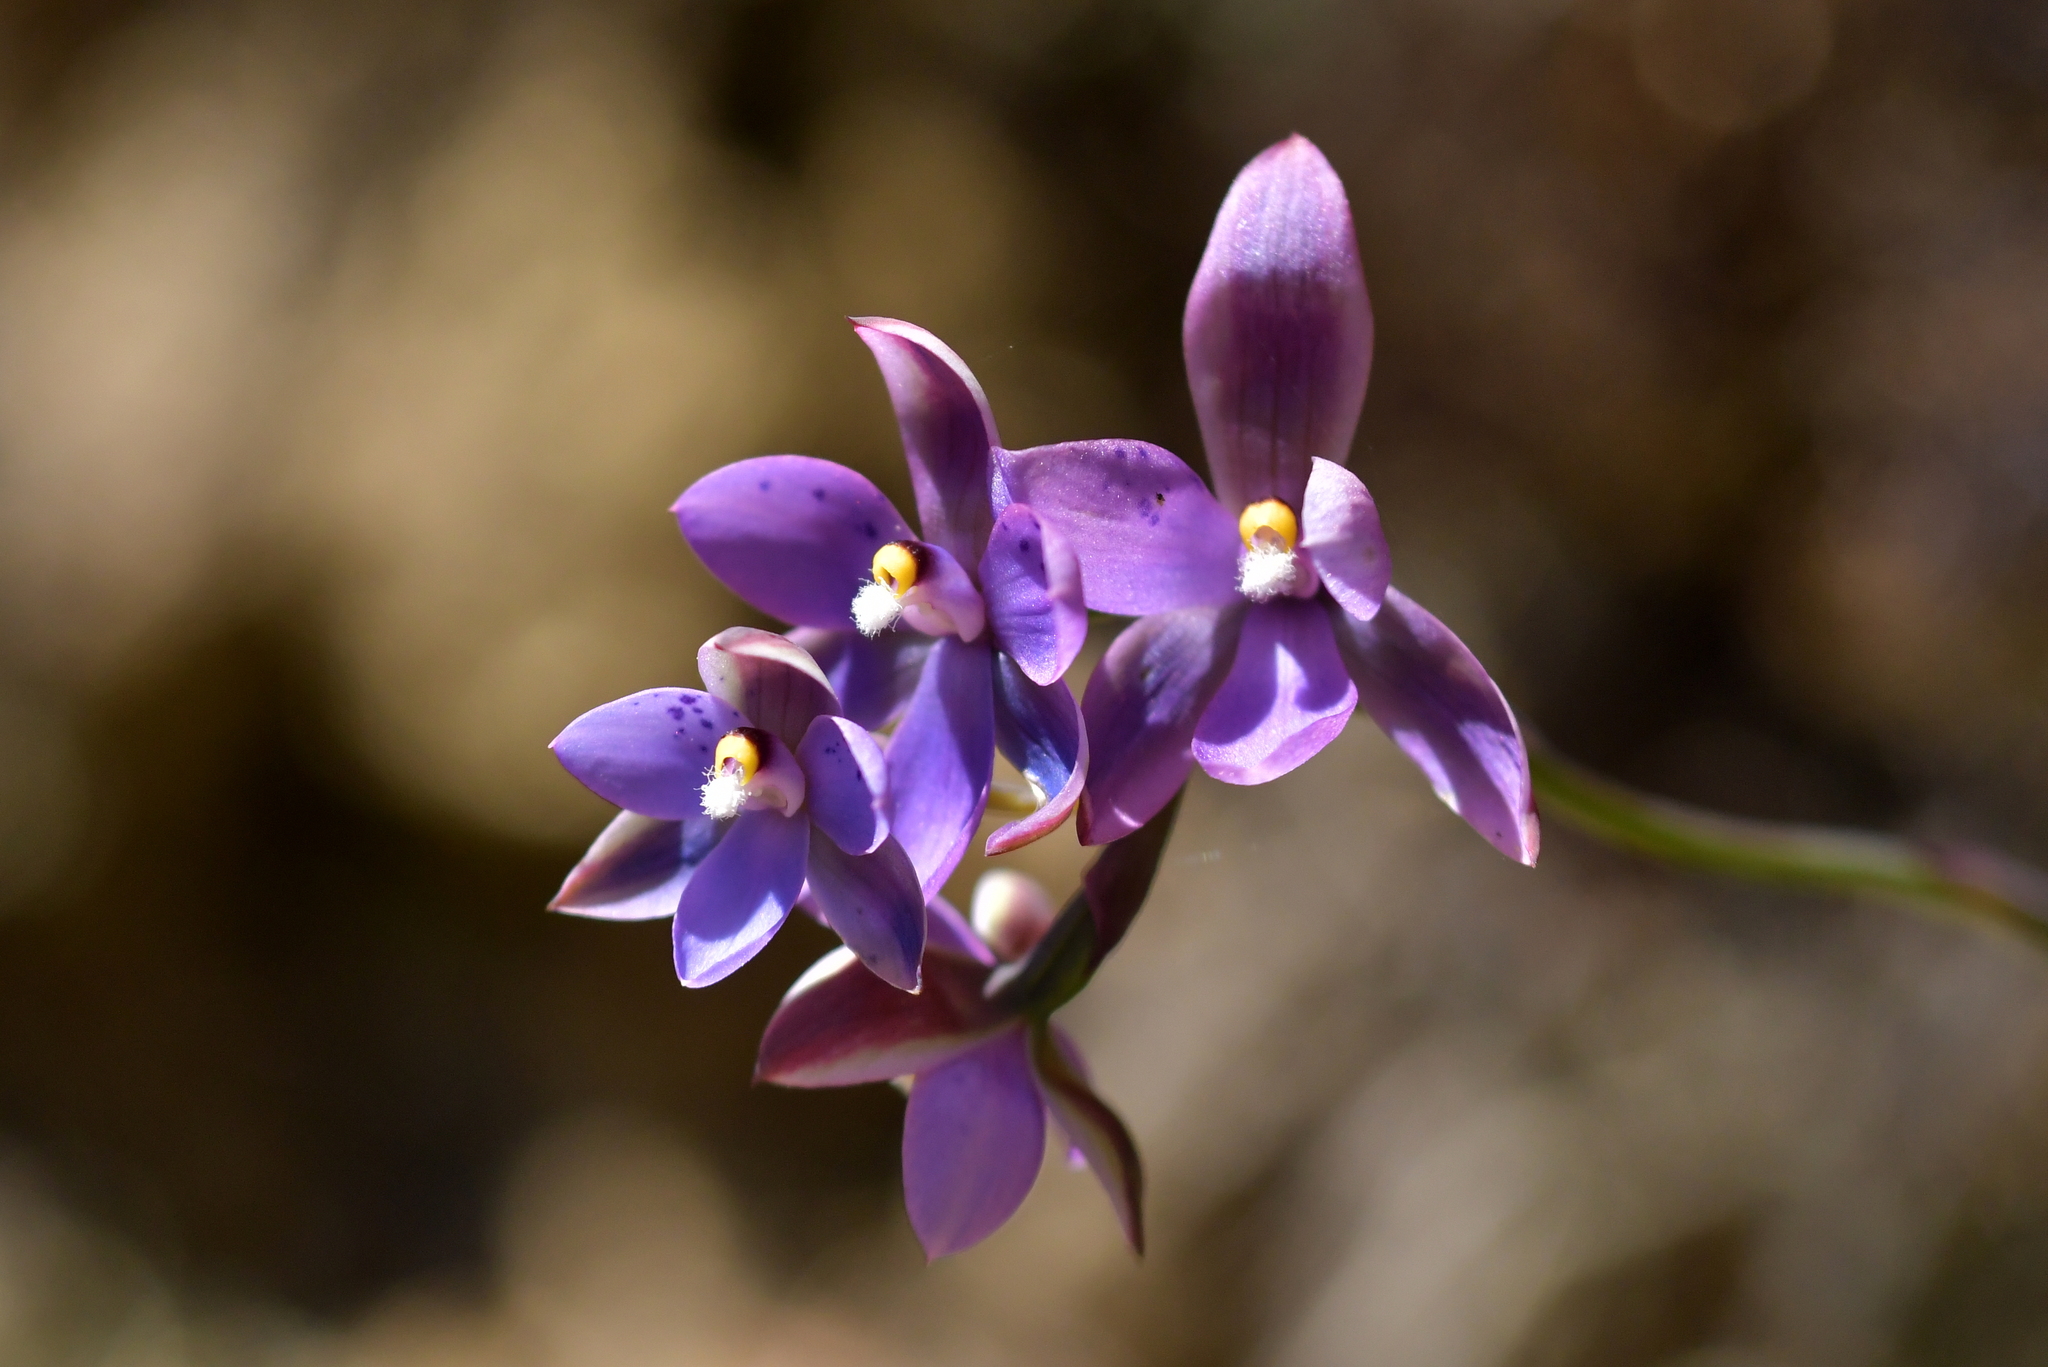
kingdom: Plantae
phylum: Tracheophyta
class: Liliopsida
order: Asparagales
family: Orchidaceae
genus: Thelymitra
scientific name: Thelymitra nervosa
